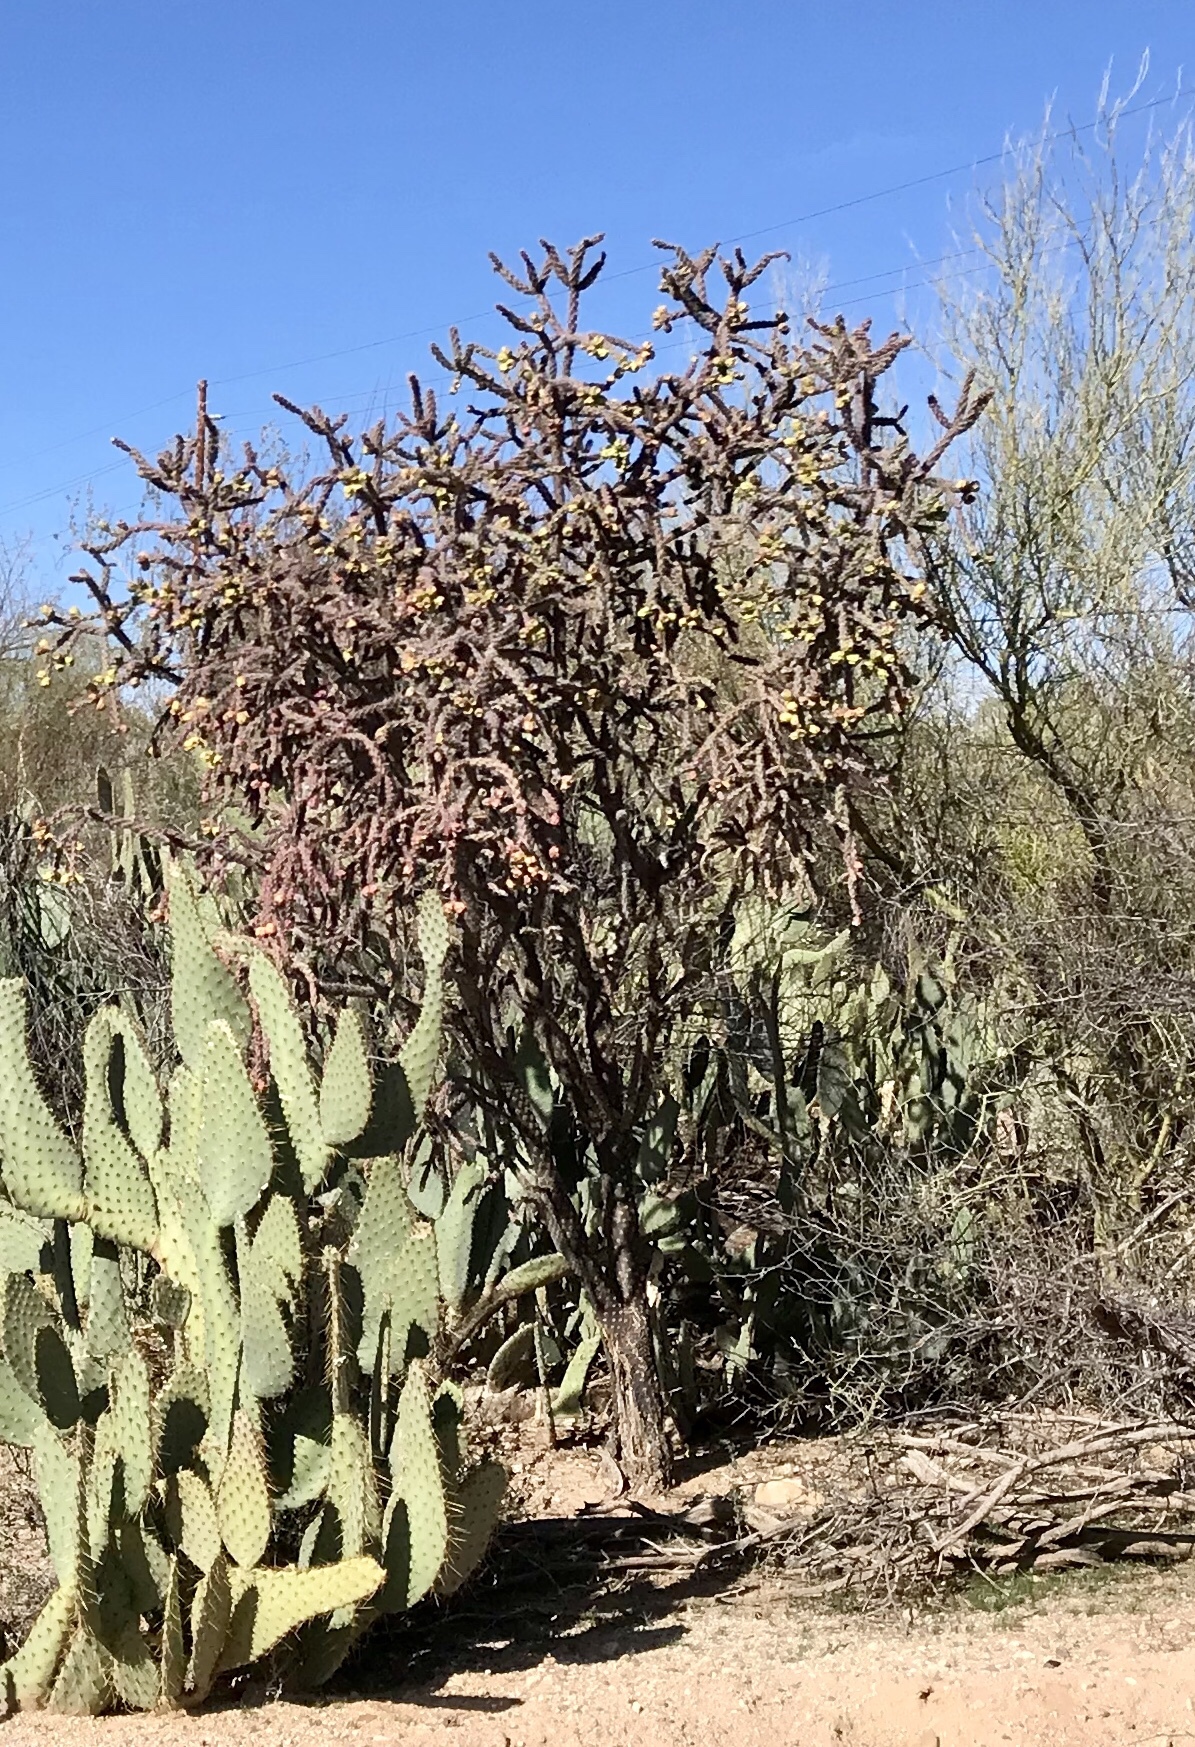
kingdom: Plantae
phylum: Tracheophyta
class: Magnoliopsida
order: Caryophyllales
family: Cactaceae
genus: Cylindropuntia
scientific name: Cylindropuntia thurberi
